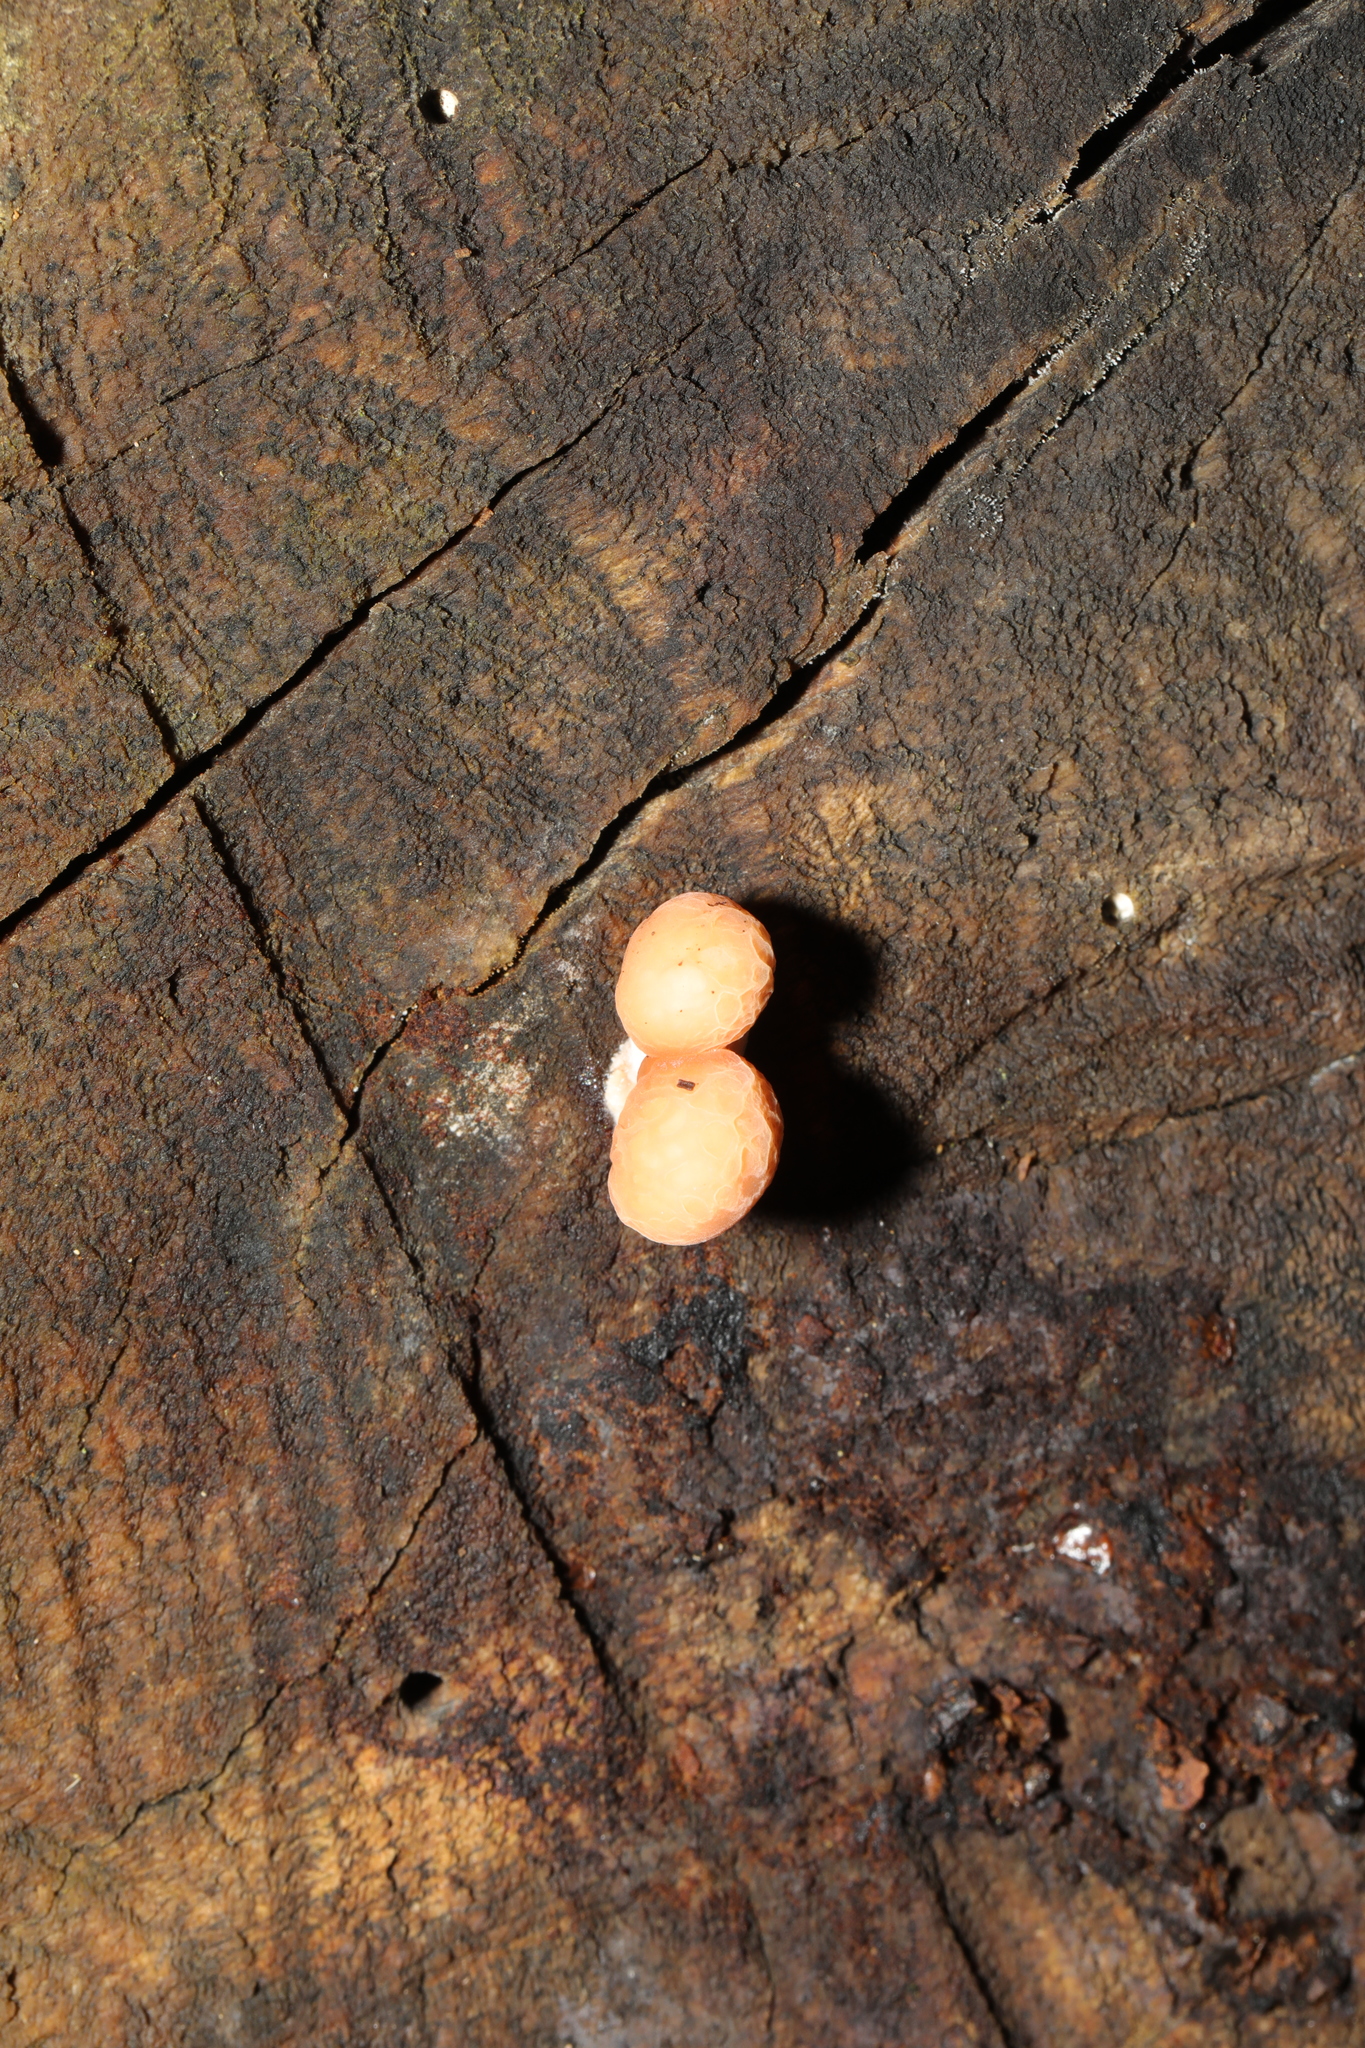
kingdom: Fungi
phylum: Basidiomycota
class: Agaricomycetes
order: Agaricales
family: Physalacriaceae
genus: Rhodotus
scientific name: Rhodotus palmatus
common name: Wrinkled peach
